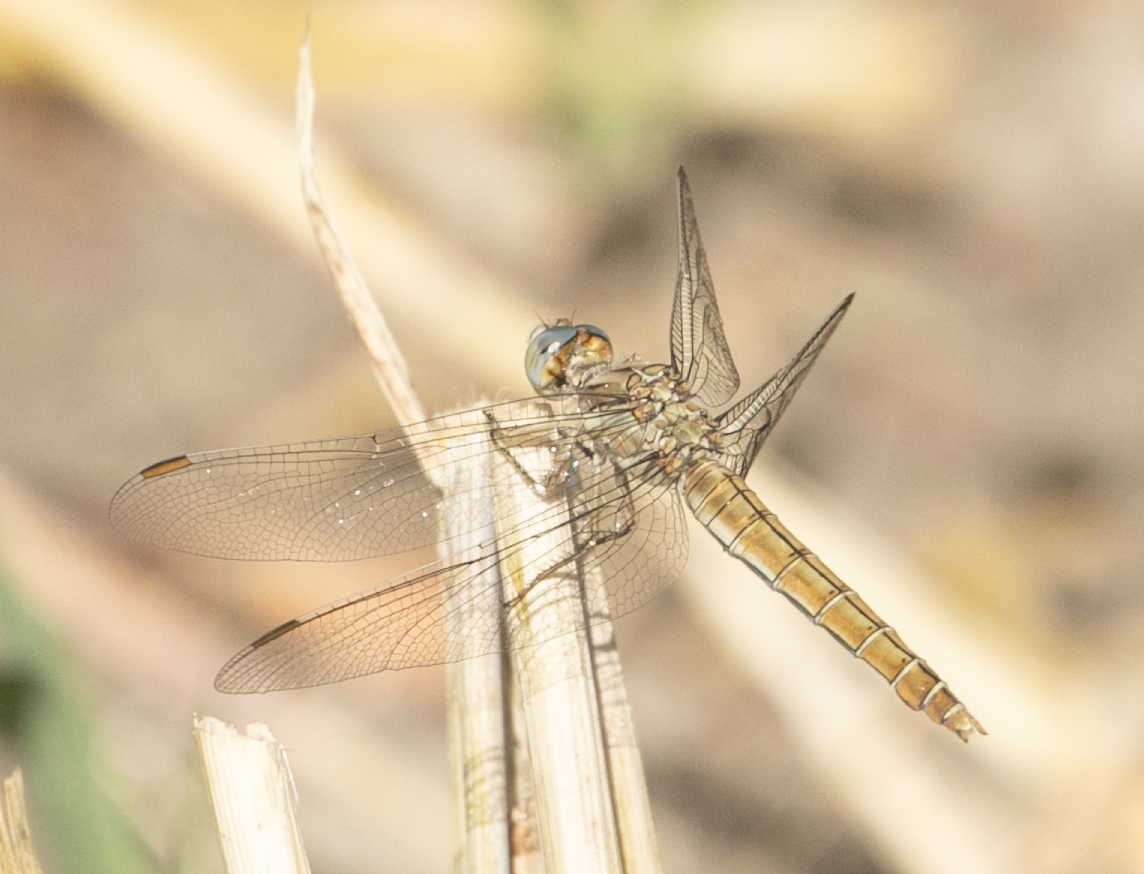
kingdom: Animalia
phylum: Arthropoda
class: Insecta
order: Odonata
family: Libellulidae
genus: Orthetrum
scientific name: Orthetrum brunneum
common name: Southern skimmer
